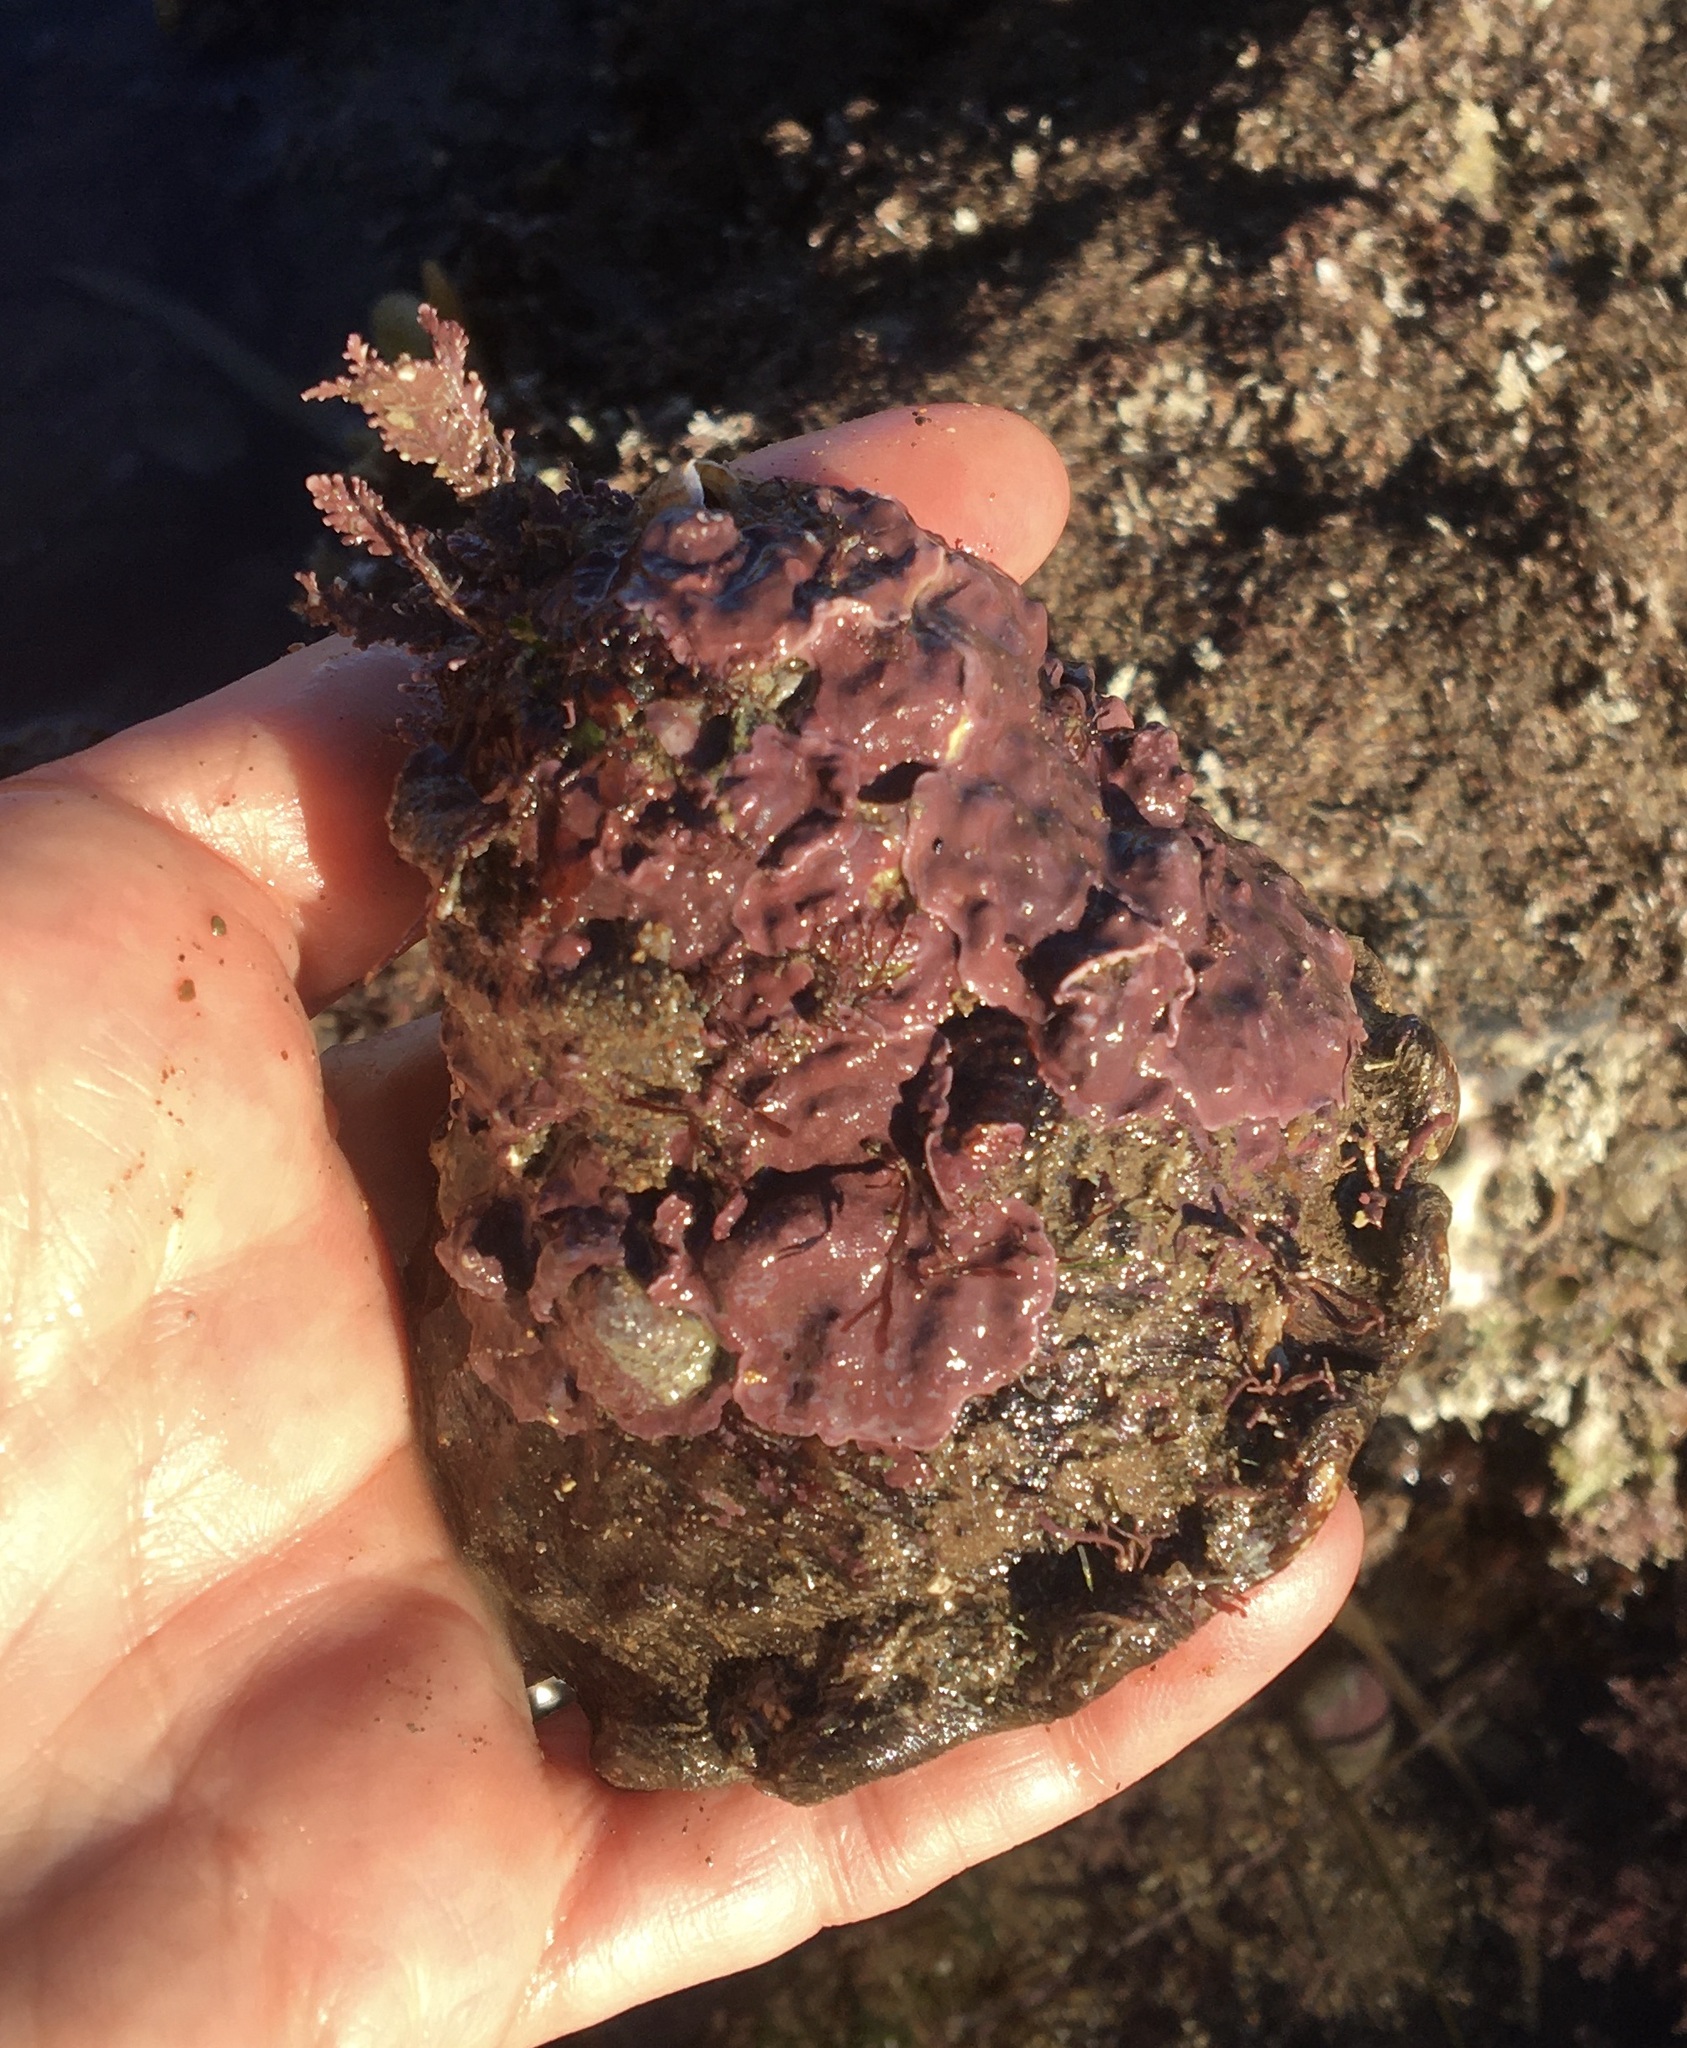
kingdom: Animalia
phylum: Mollusca
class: Gastropoda
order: Trochida
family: Turbinidae
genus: Megastraea
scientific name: Megastraea undosa
